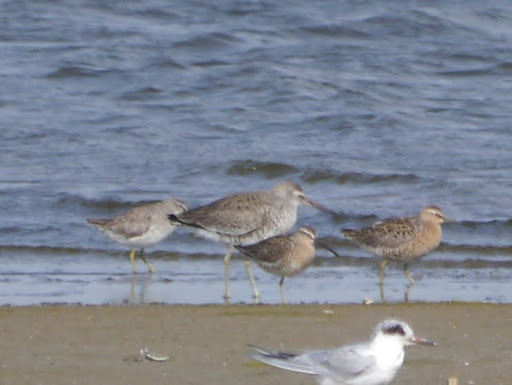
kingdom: Animalia
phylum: Chordata
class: Aves
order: Charadriiformes
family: Scolopacidae
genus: Tringa
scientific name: Tringa semipalmata
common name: Willet
